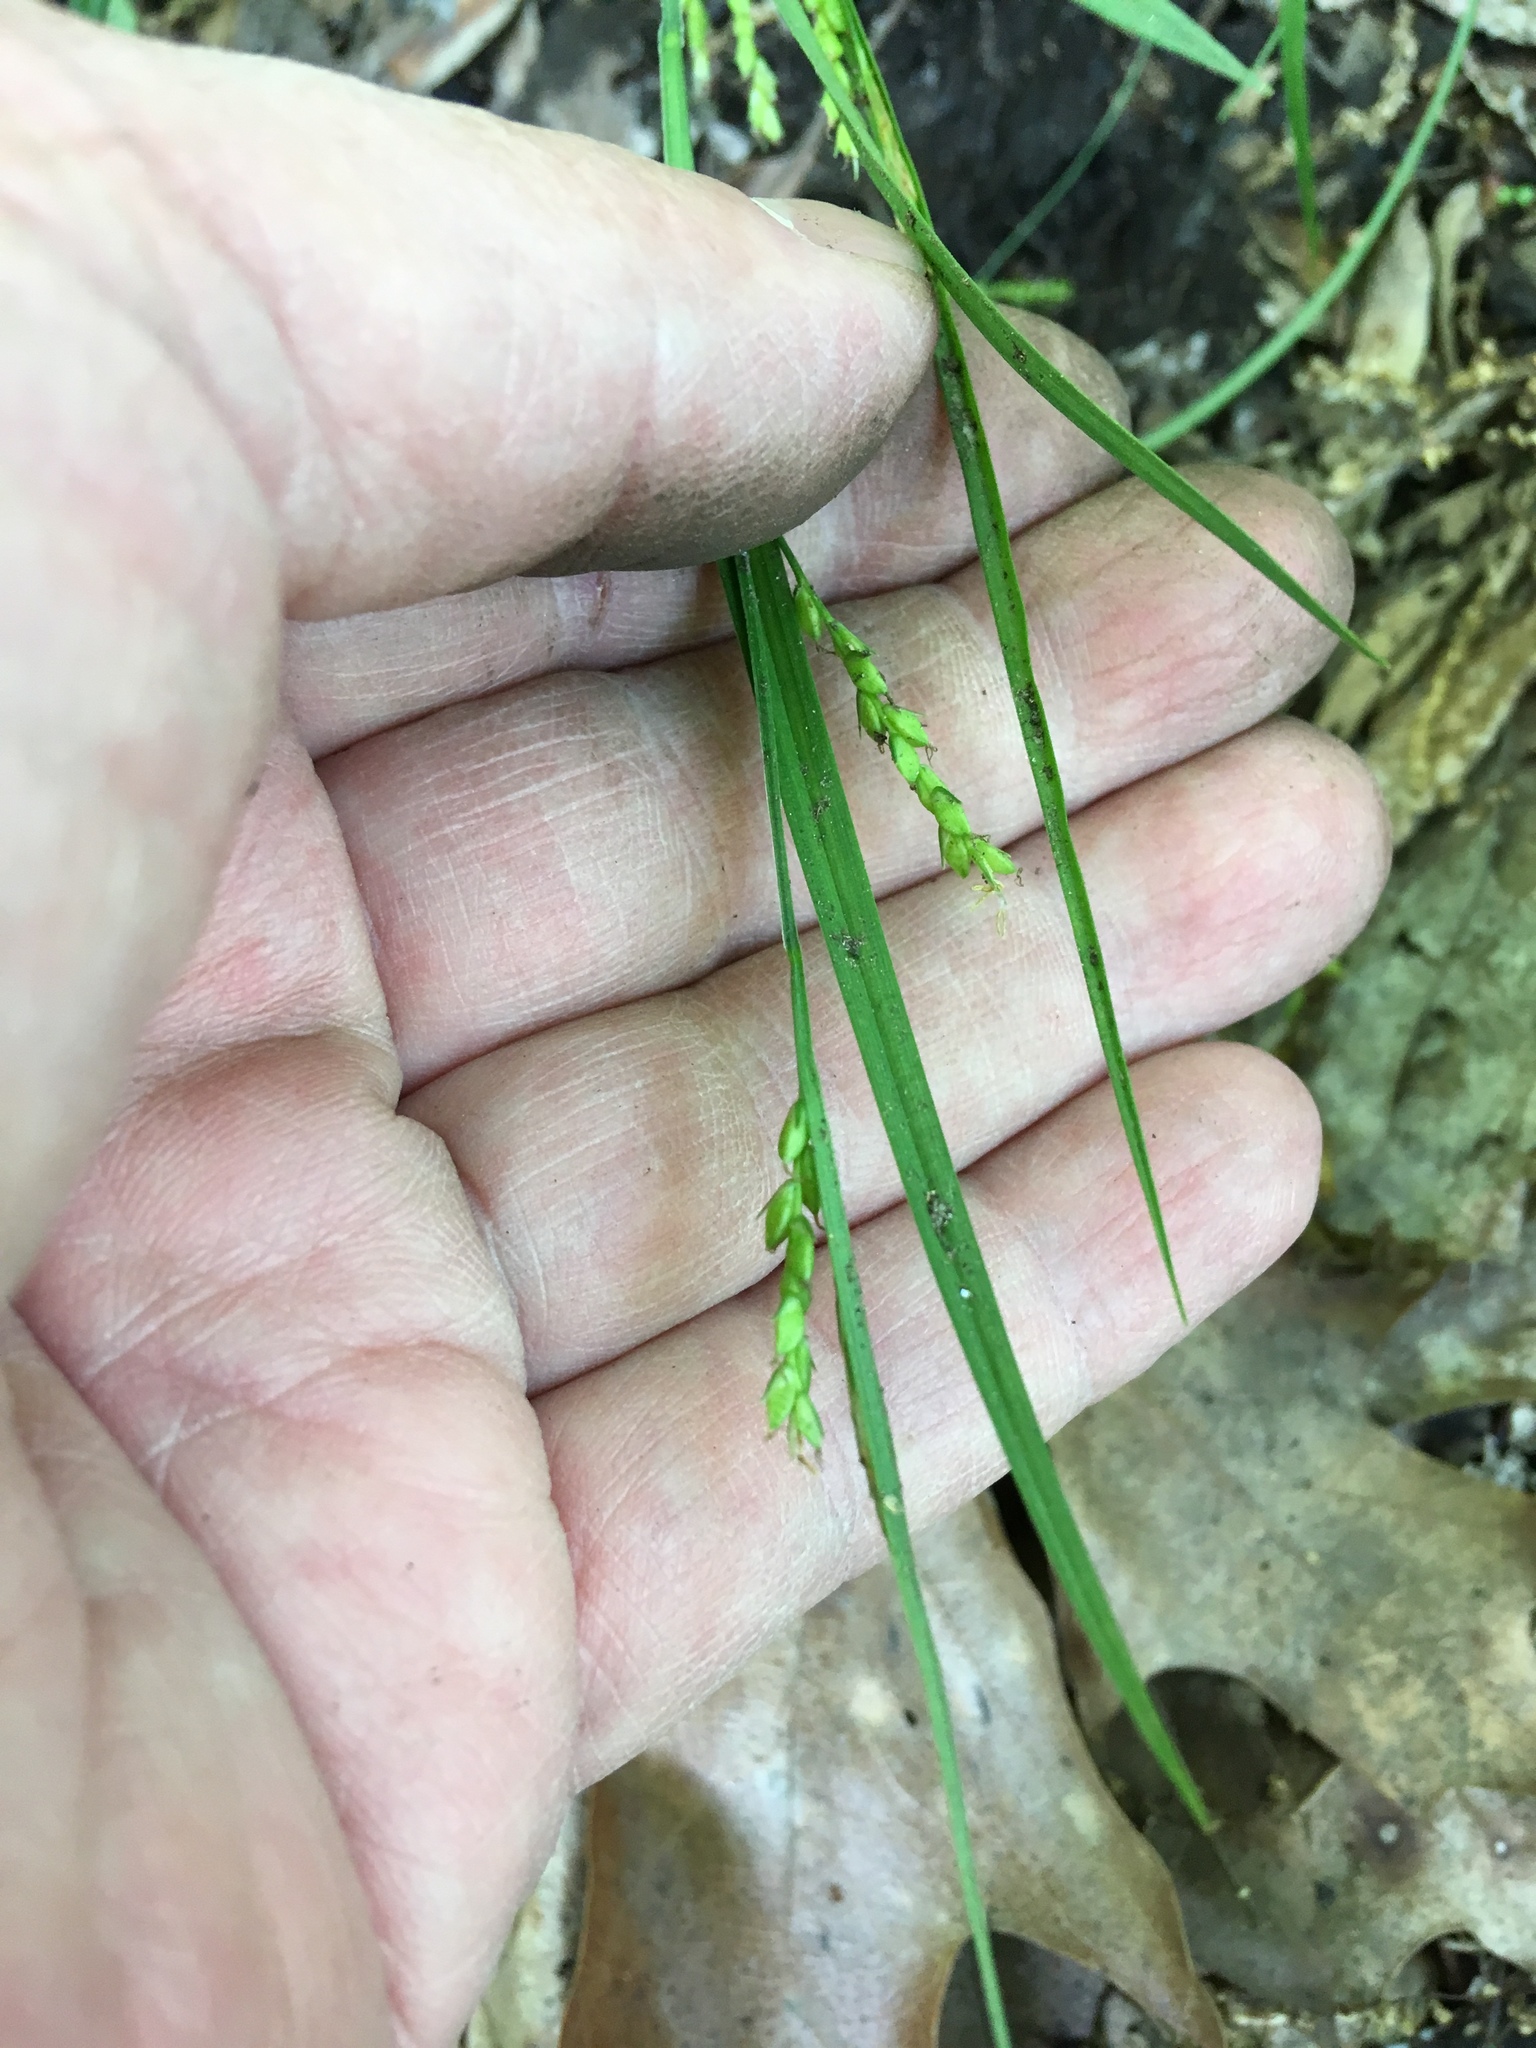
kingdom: Plantae
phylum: Tracheophyta
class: Liliopsida
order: Poales
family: Cyperaceae
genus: Carex
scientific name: Carex digitalis
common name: Slender wood sedge
